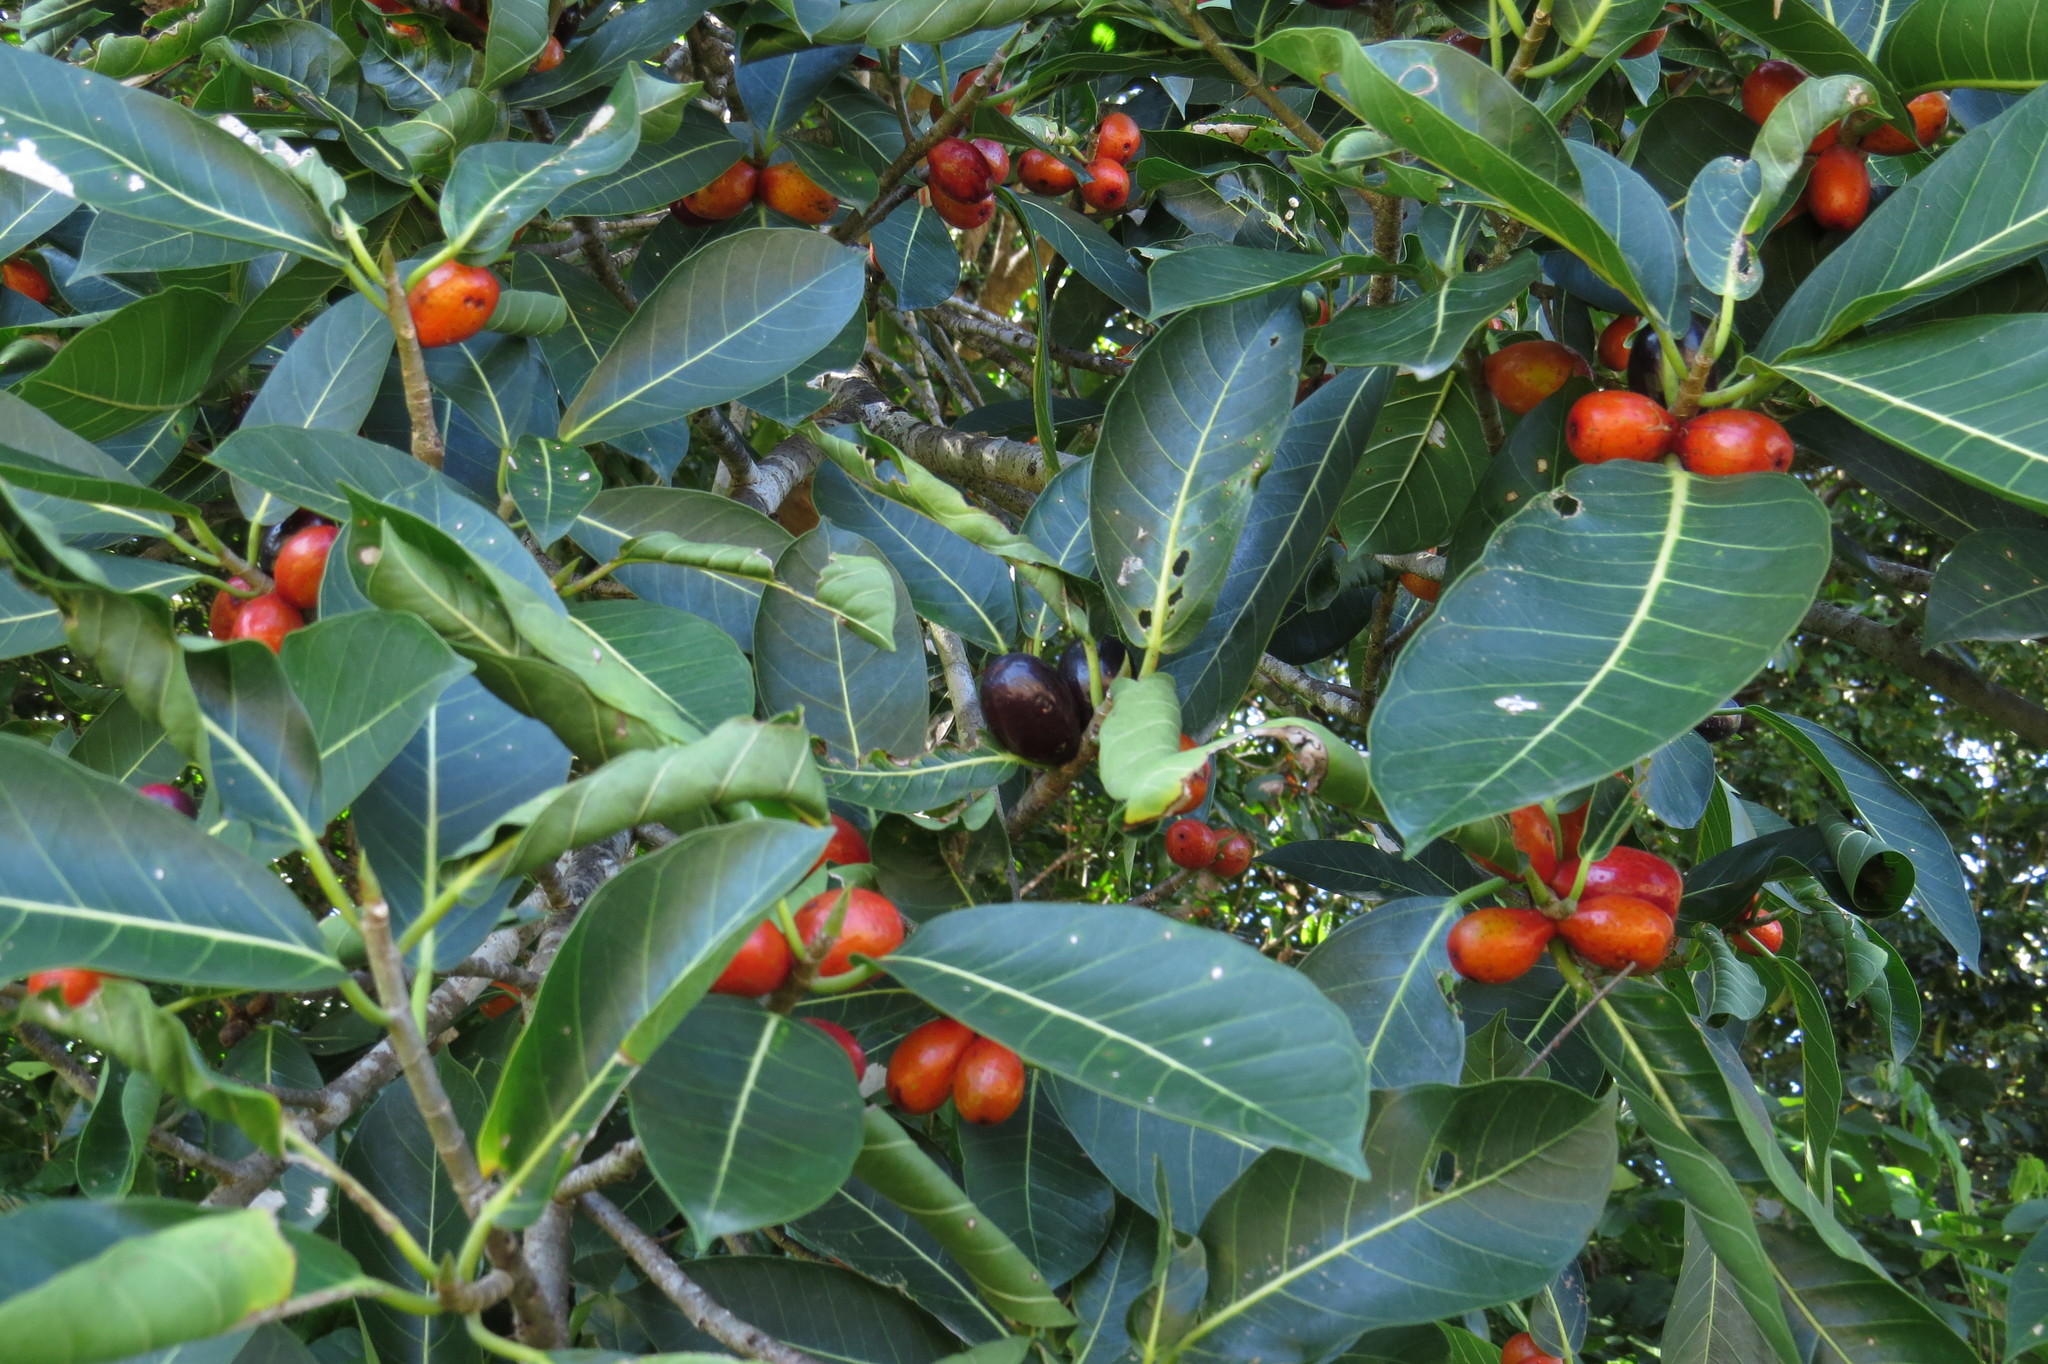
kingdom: Plantae
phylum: Tracheophyta
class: Magnoliopsida
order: Rosales
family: Moraceae
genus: Ficus
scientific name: Ficus drupacea
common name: Drupe fig
